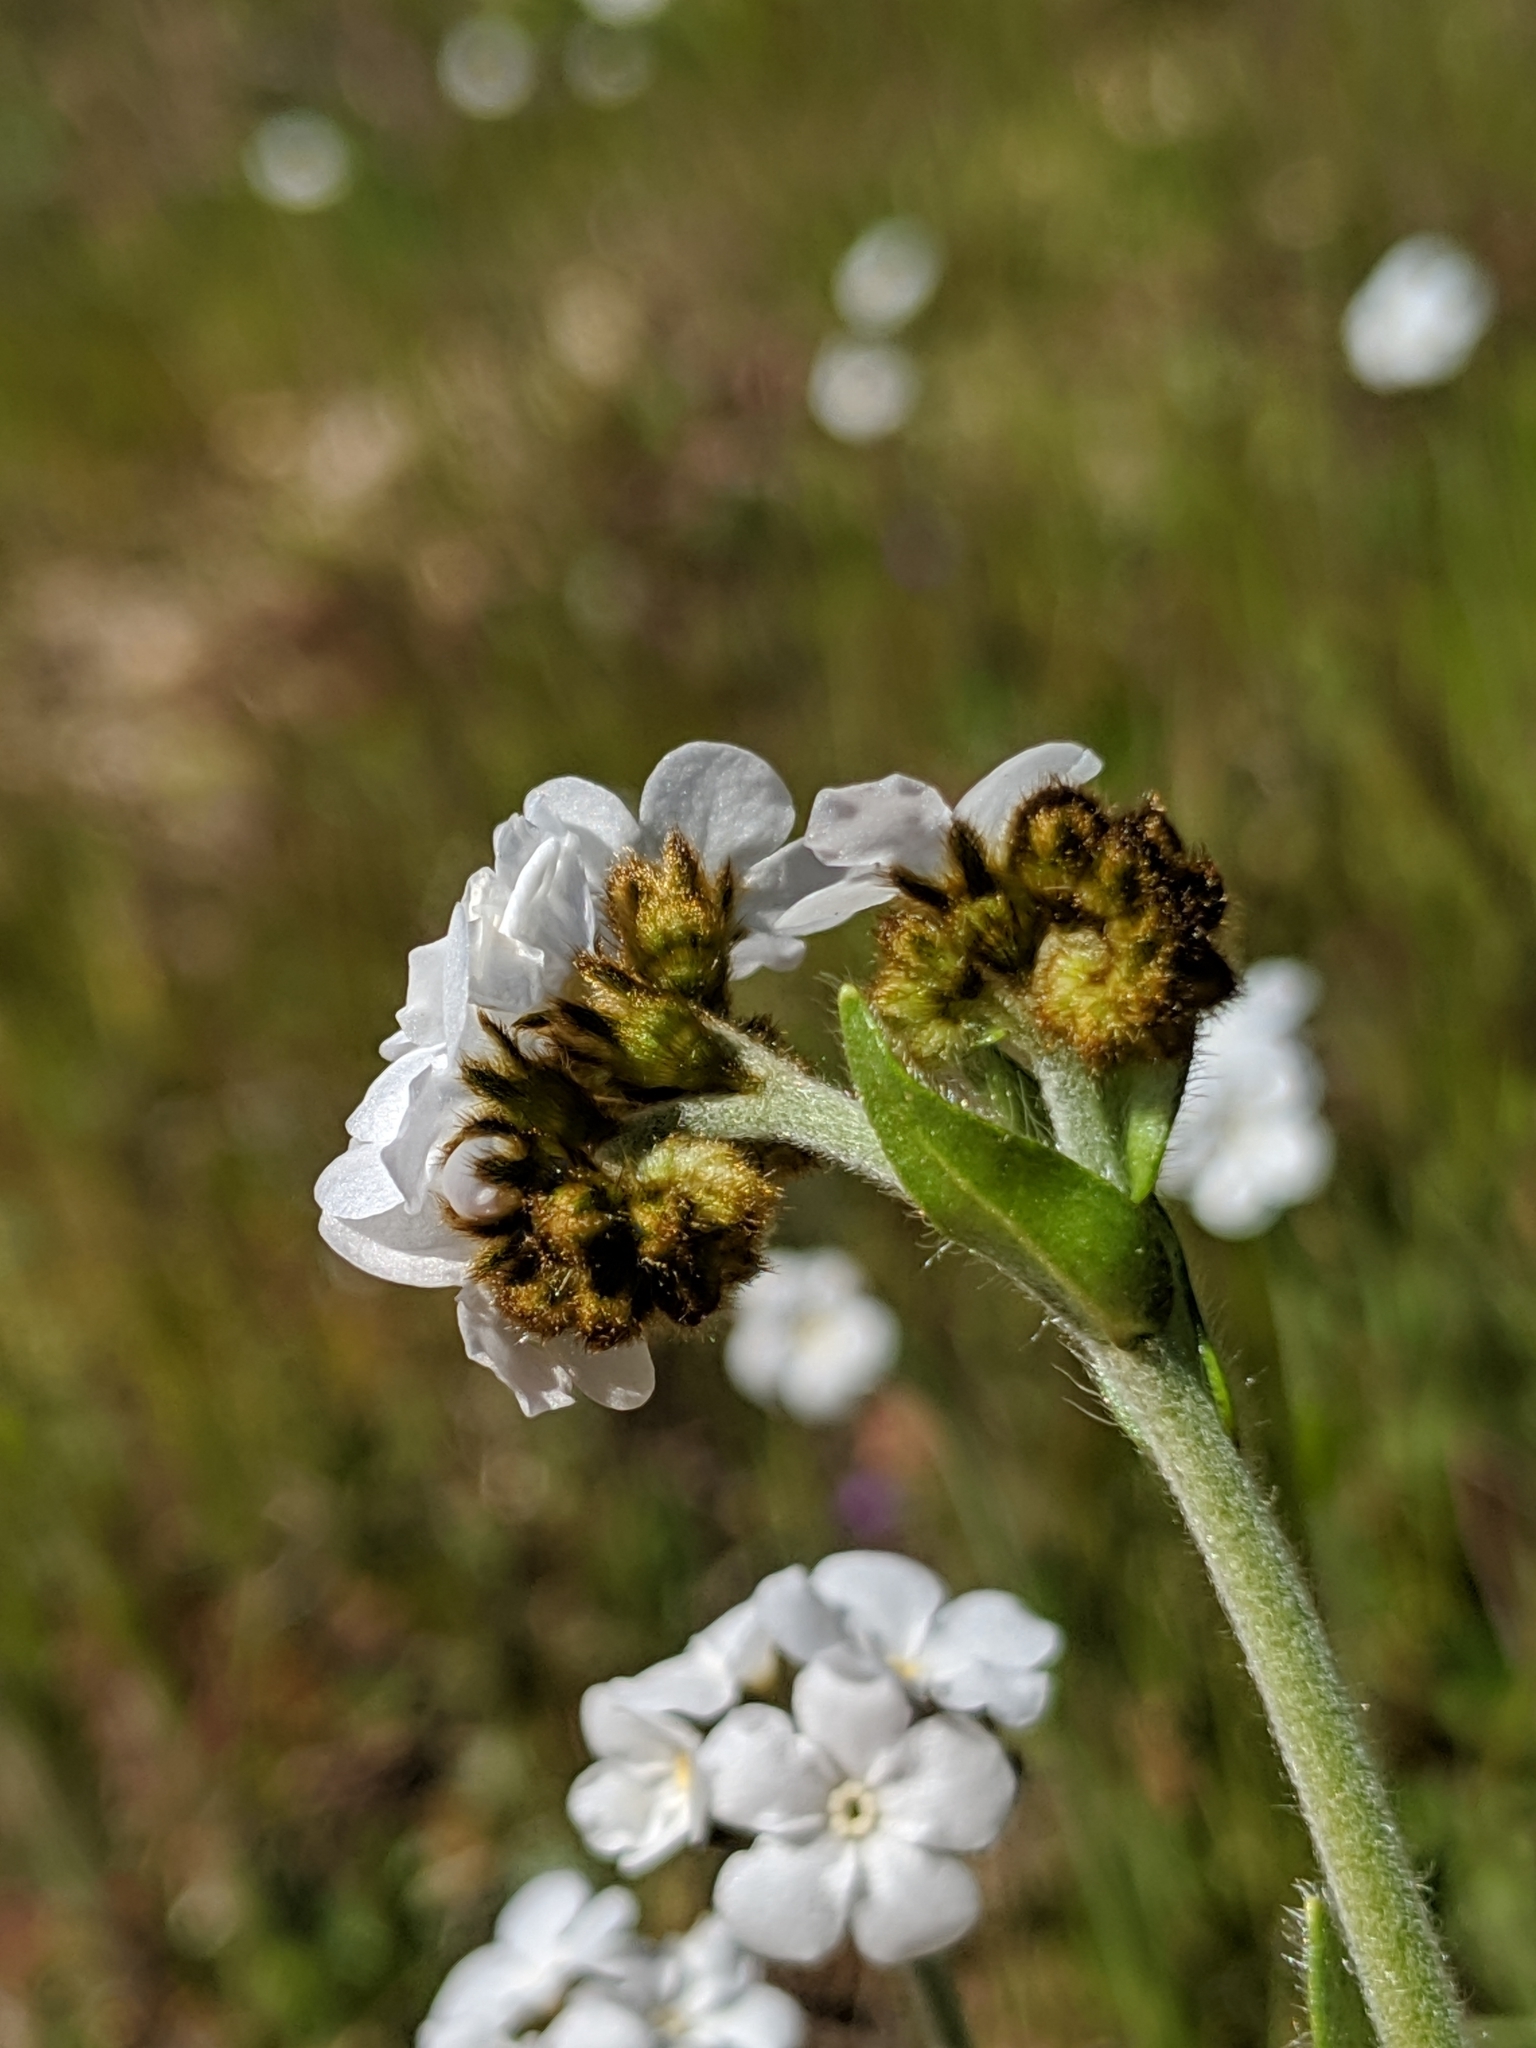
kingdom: Plantae
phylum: Tracheophyta
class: Magnoliopsida
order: Boraginales
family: Boraginaceae
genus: Plagiobothrys
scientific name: Plagiobothrys nothofulvus
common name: Popcorn-flower
